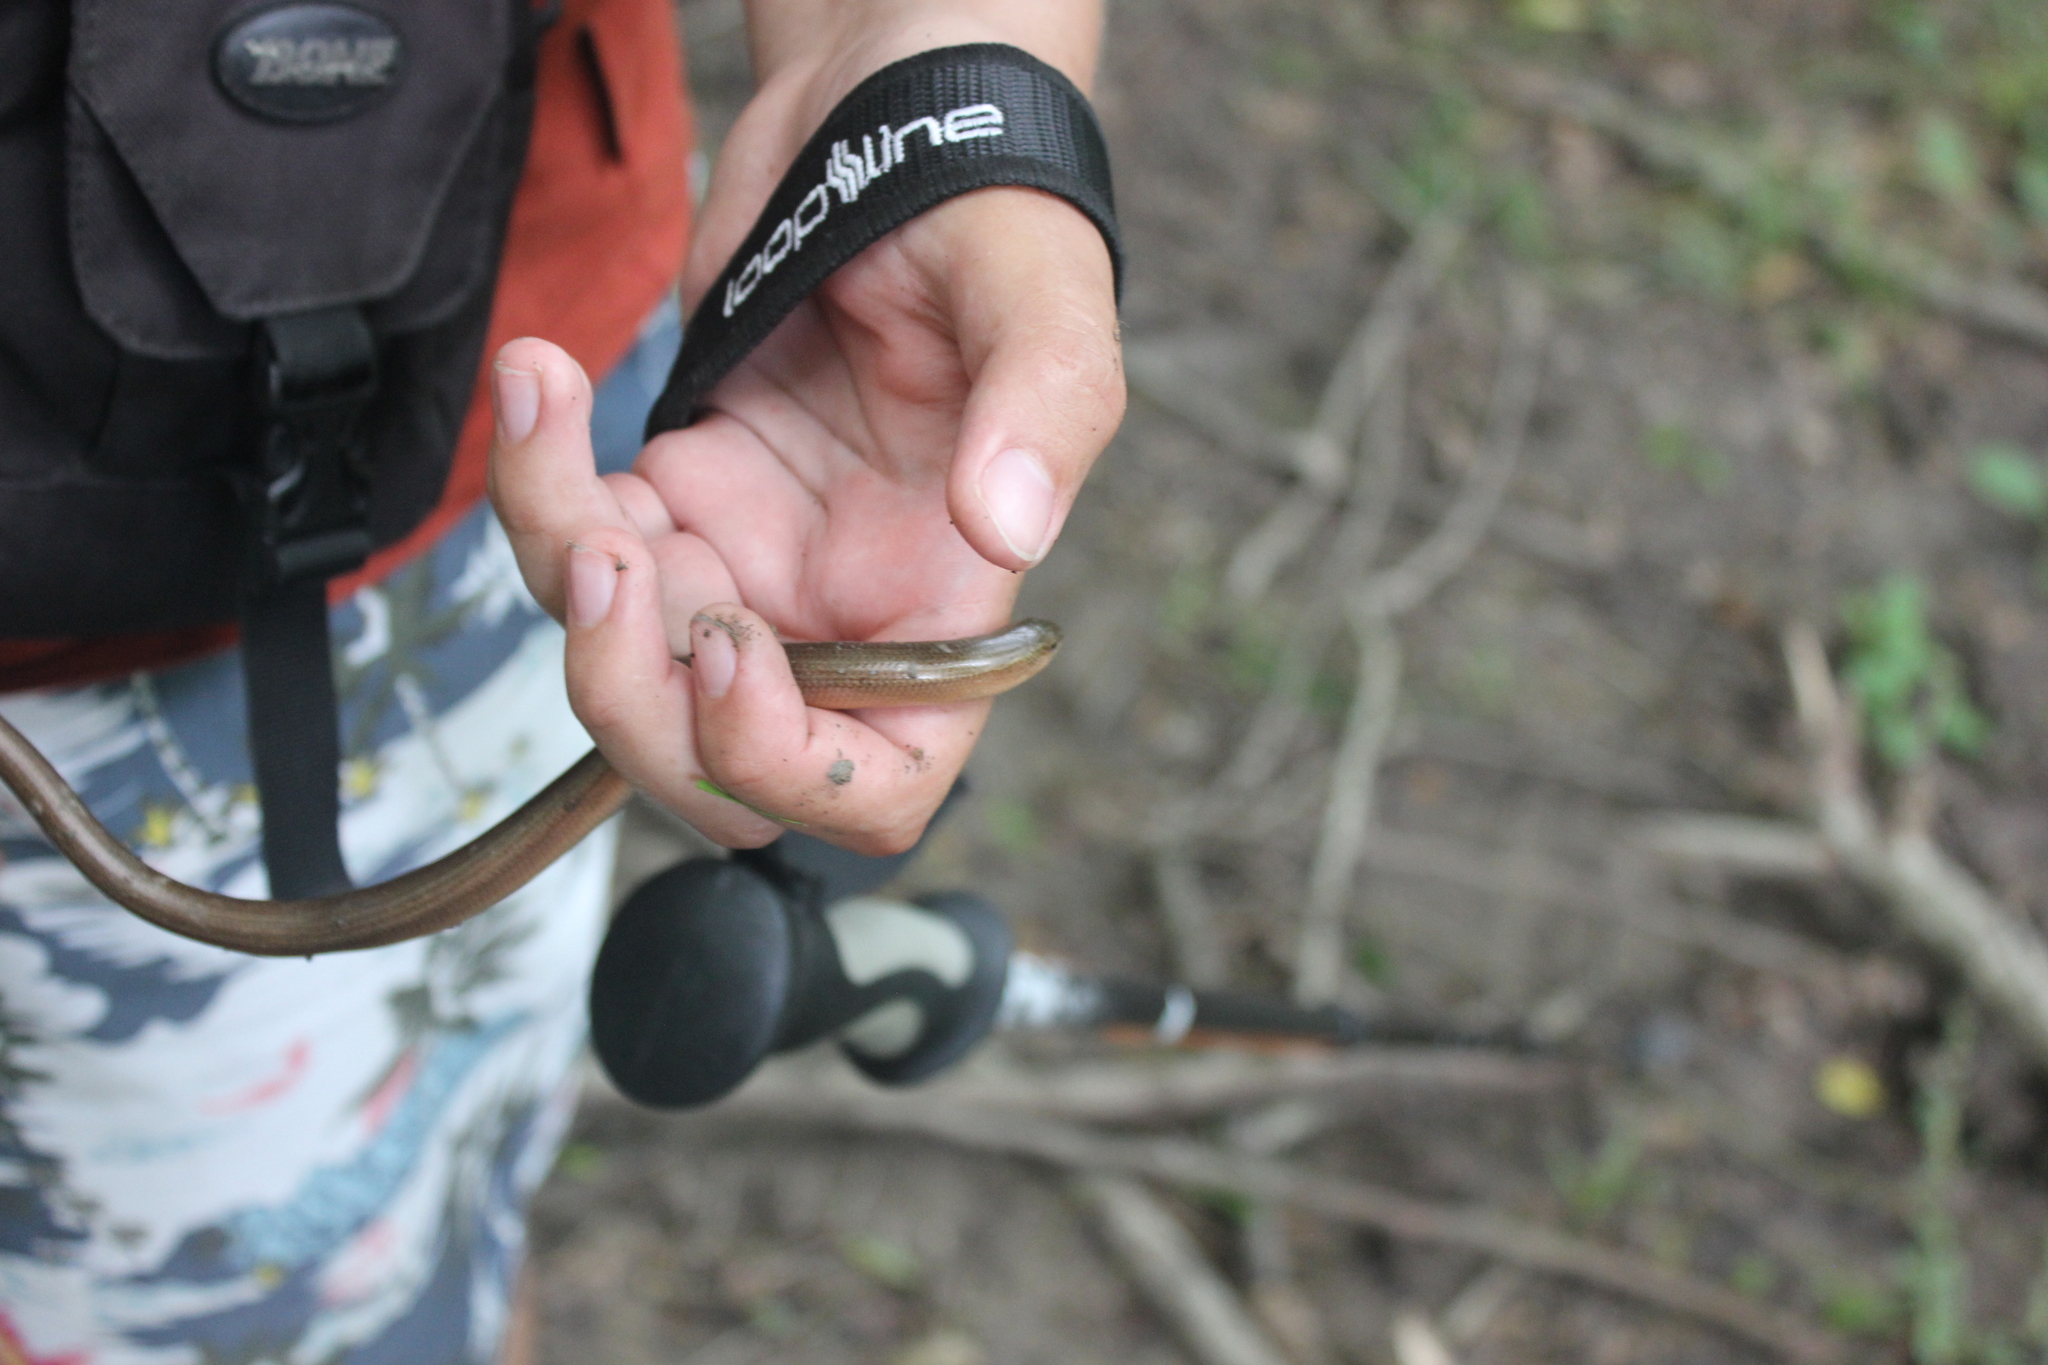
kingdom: Animalia
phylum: Chordata
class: Squamata
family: Anguidae
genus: Anguis
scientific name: Anguis colchica
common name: Slow worm
